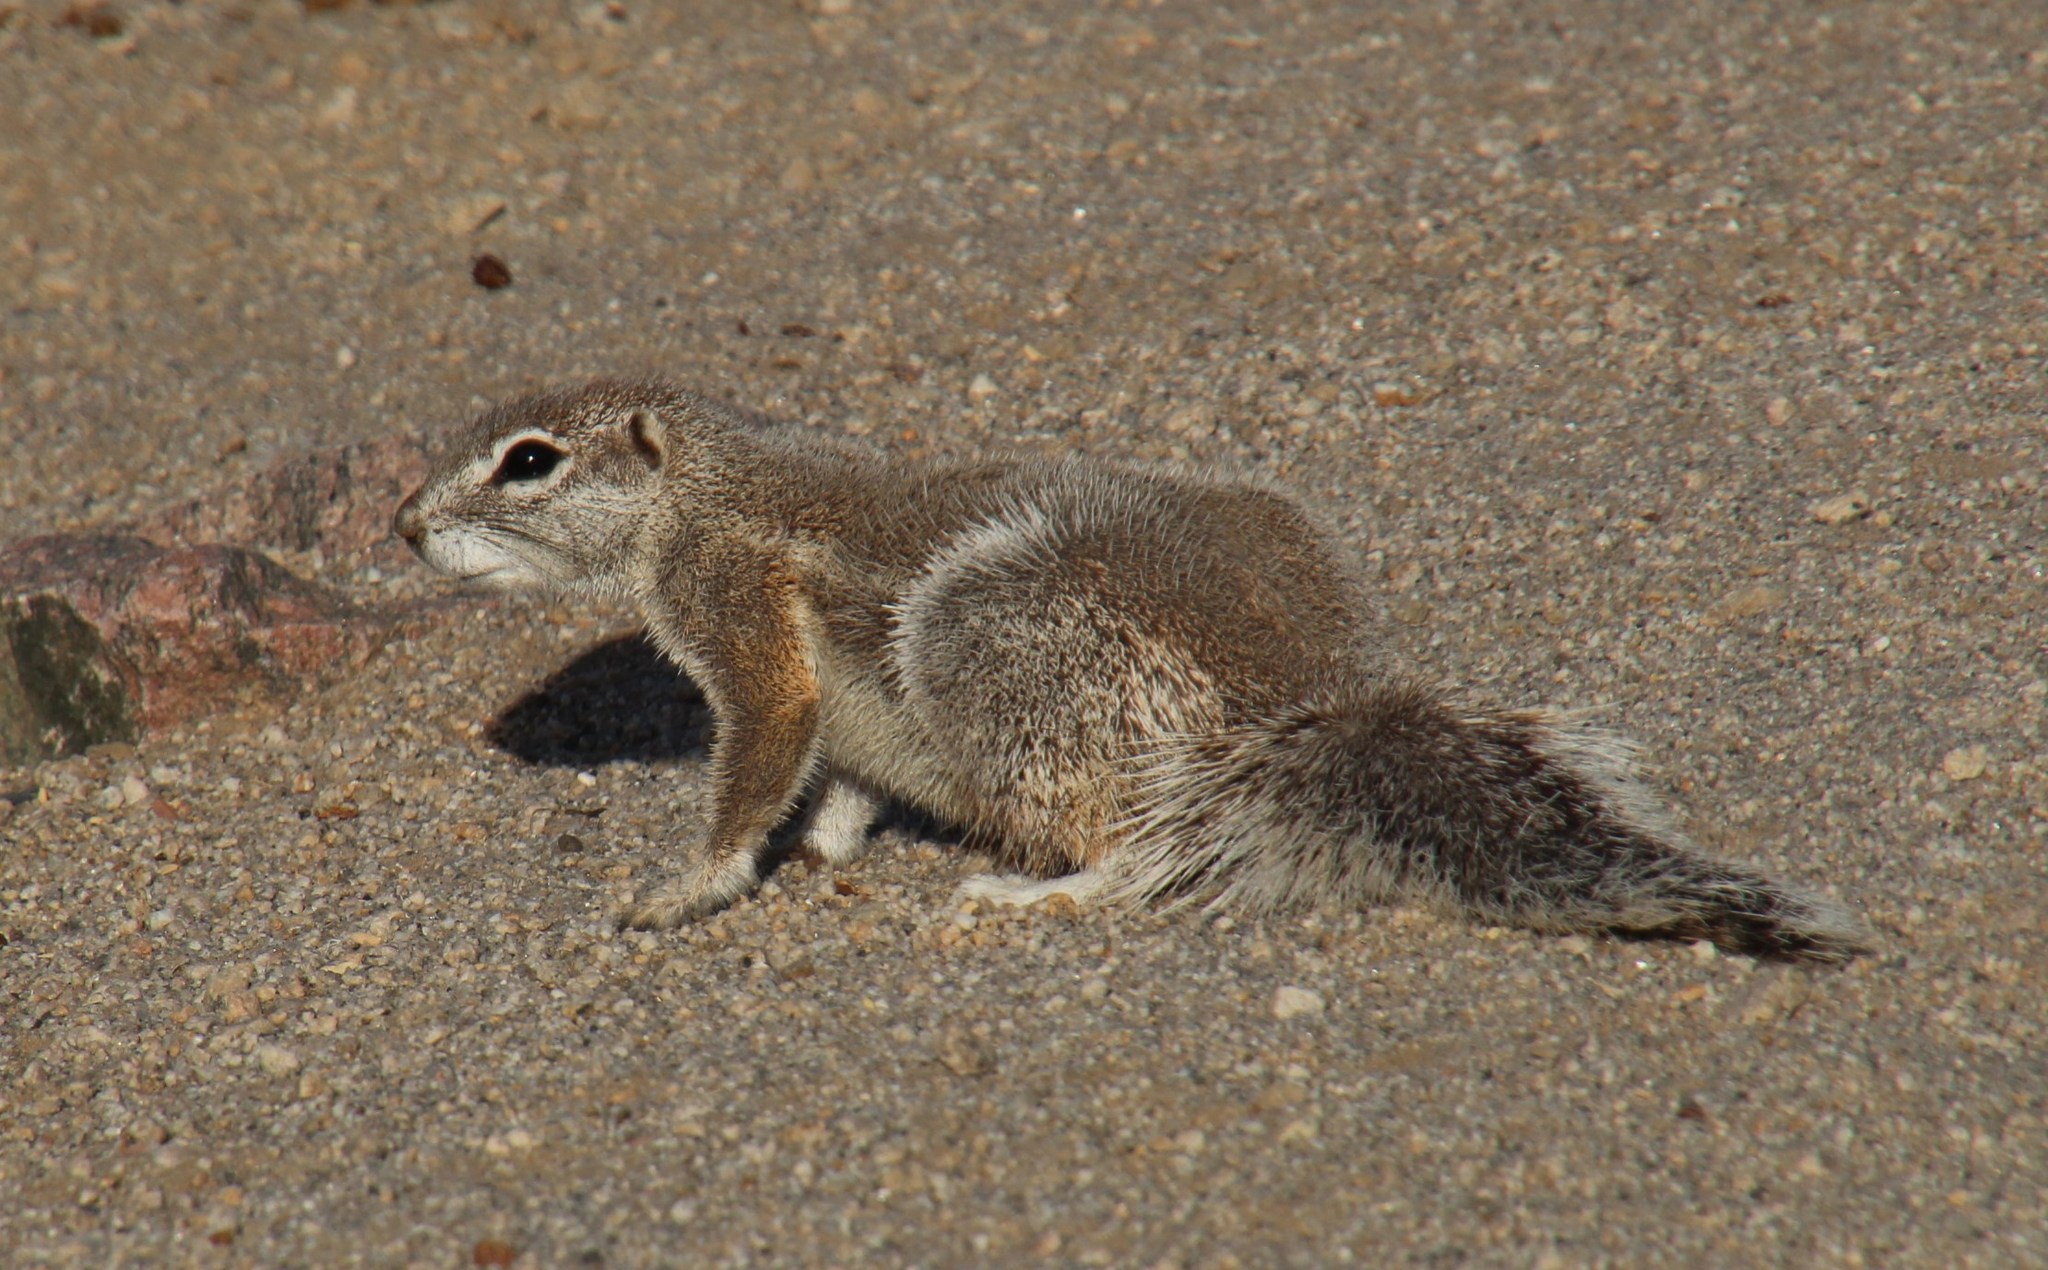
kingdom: Animalia
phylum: Chordata
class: Mammalia
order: Rodentia
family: Sciuridae
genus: Xerus
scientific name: Xerus inauris
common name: South african ground squirrel
